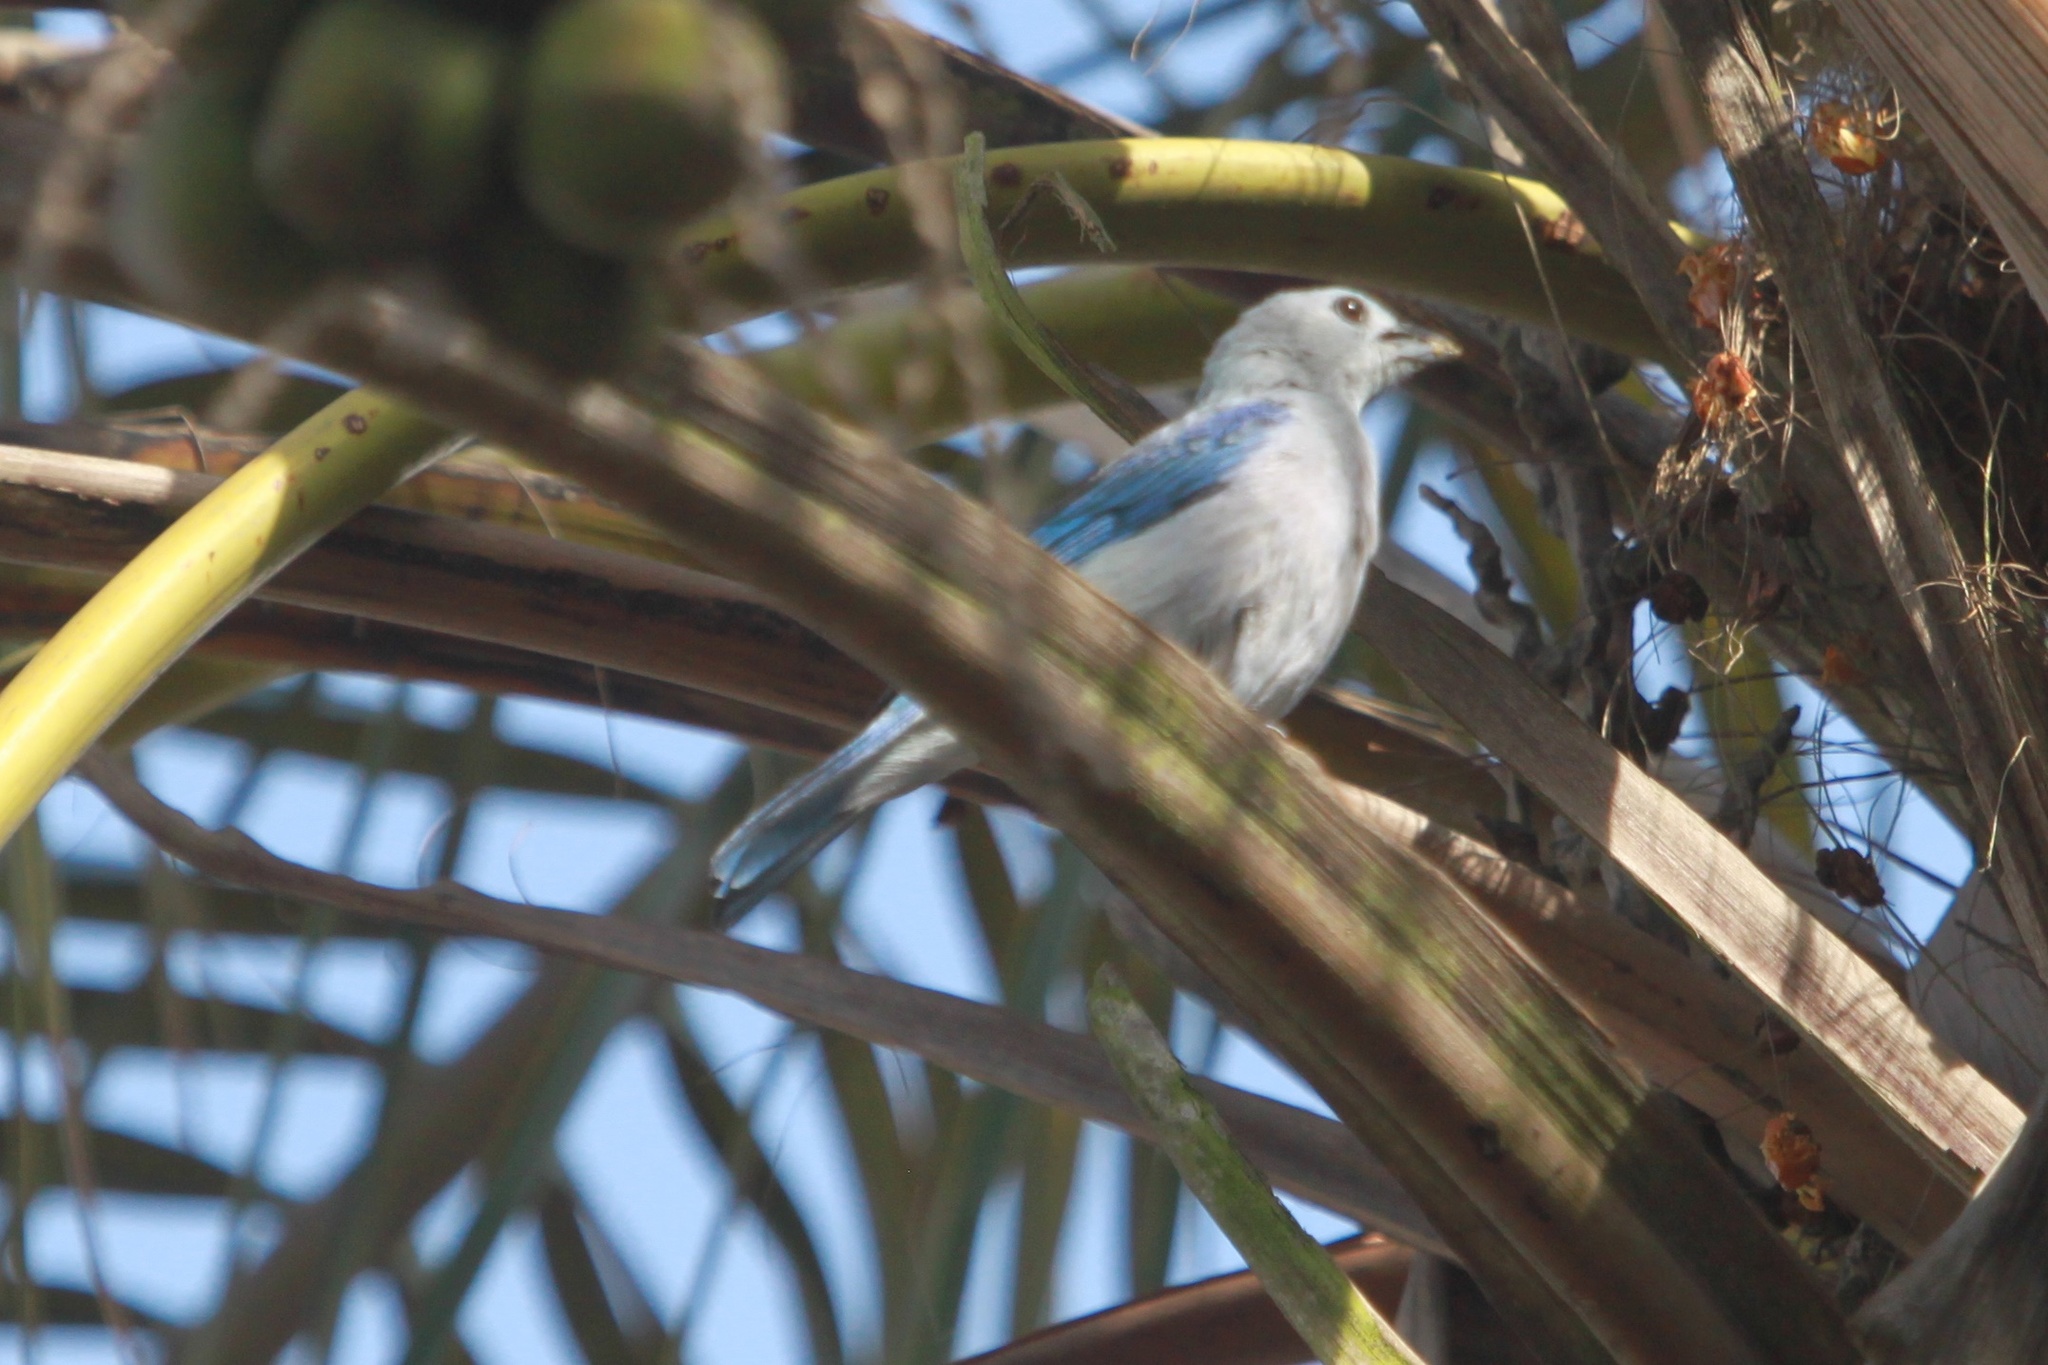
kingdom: Animalia
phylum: Chordata
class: Aves
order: Passeriformes
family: Thraupidae
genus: Thraupis
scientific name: Thraupis episcopus
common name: Blue-grey tanager
